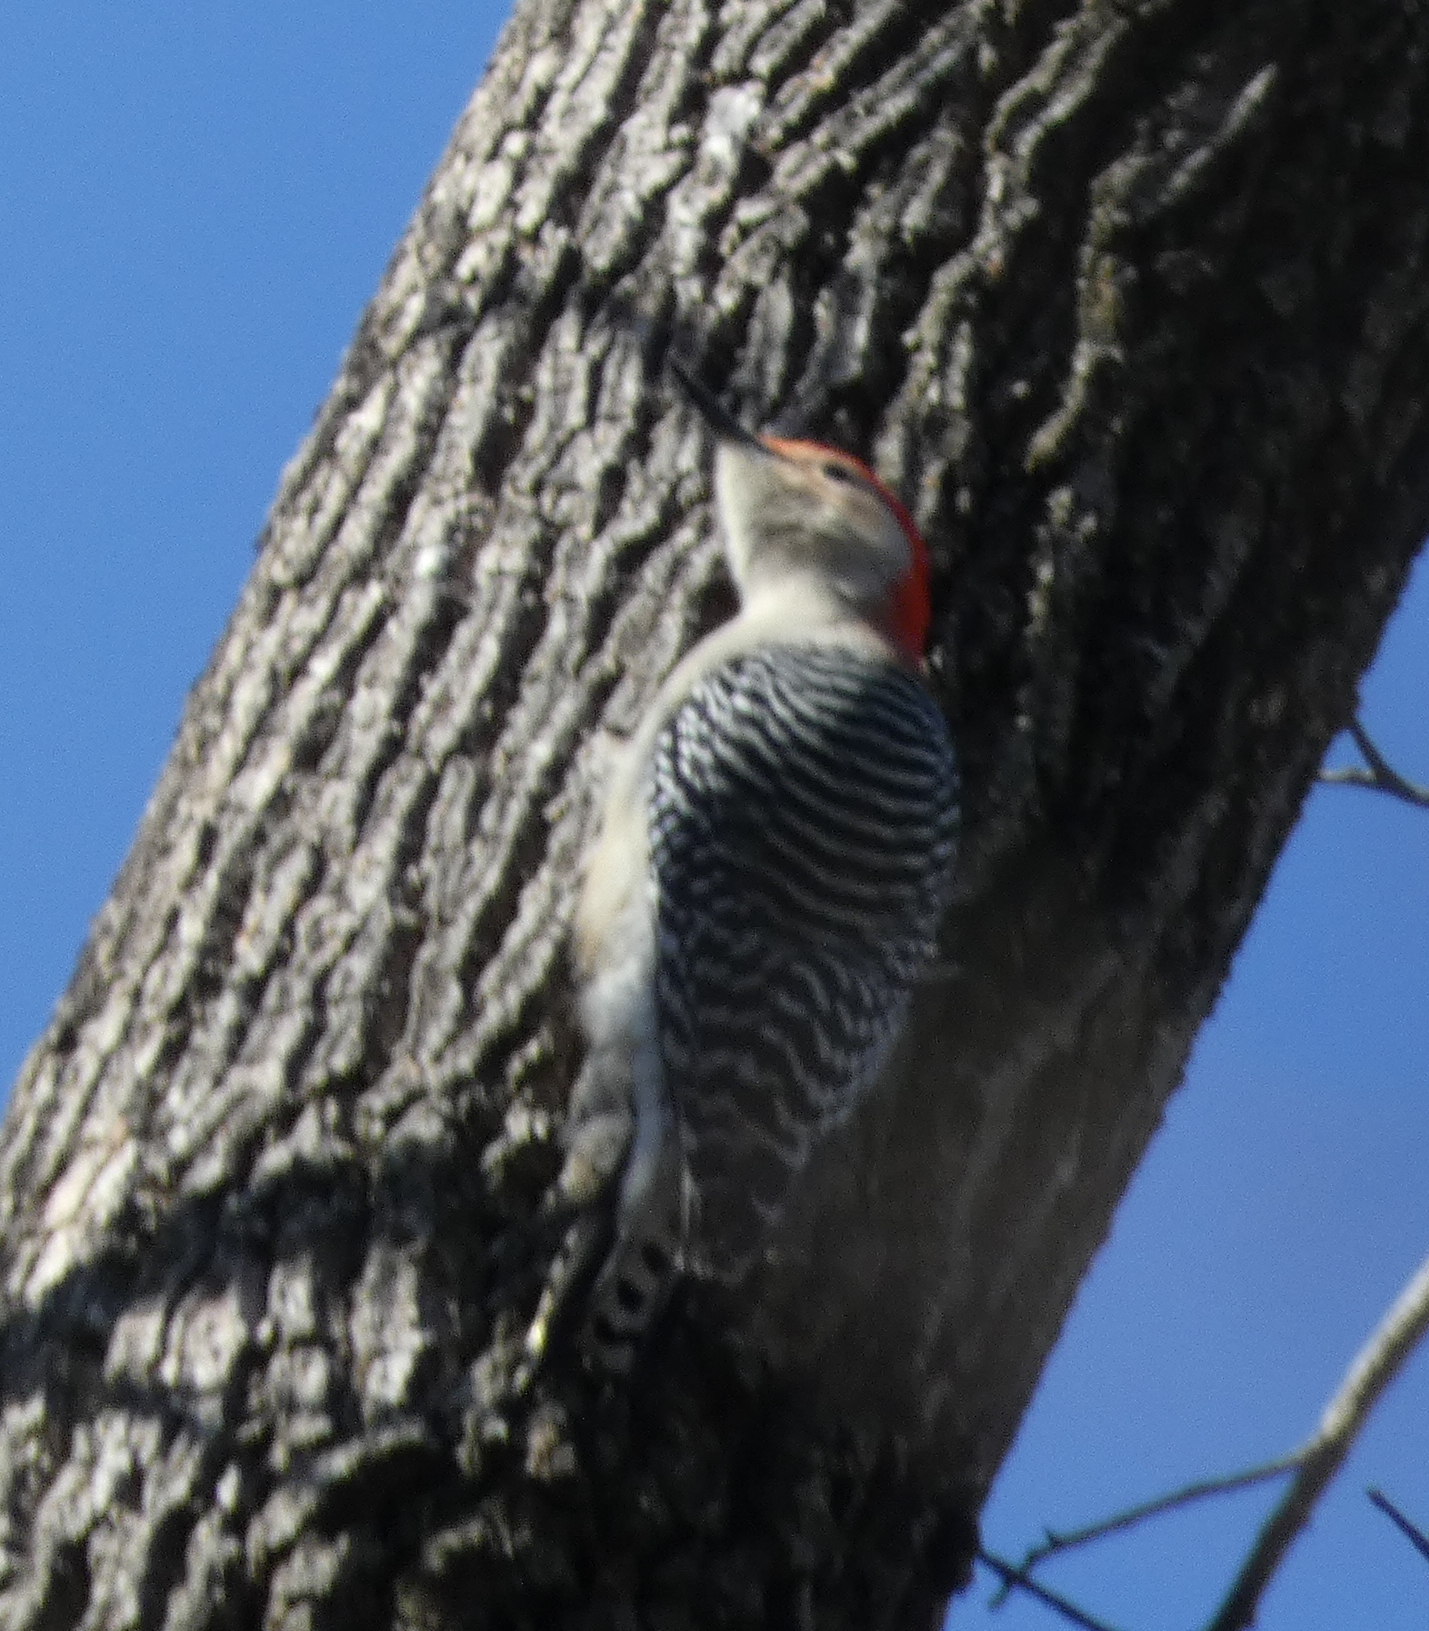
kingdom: Animalia
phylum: Chordata
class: Aves
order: Piciformes
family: Picidae
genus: Melanerpes
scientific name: Melanerpes carolinus
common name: Red-bellied woodpecker
